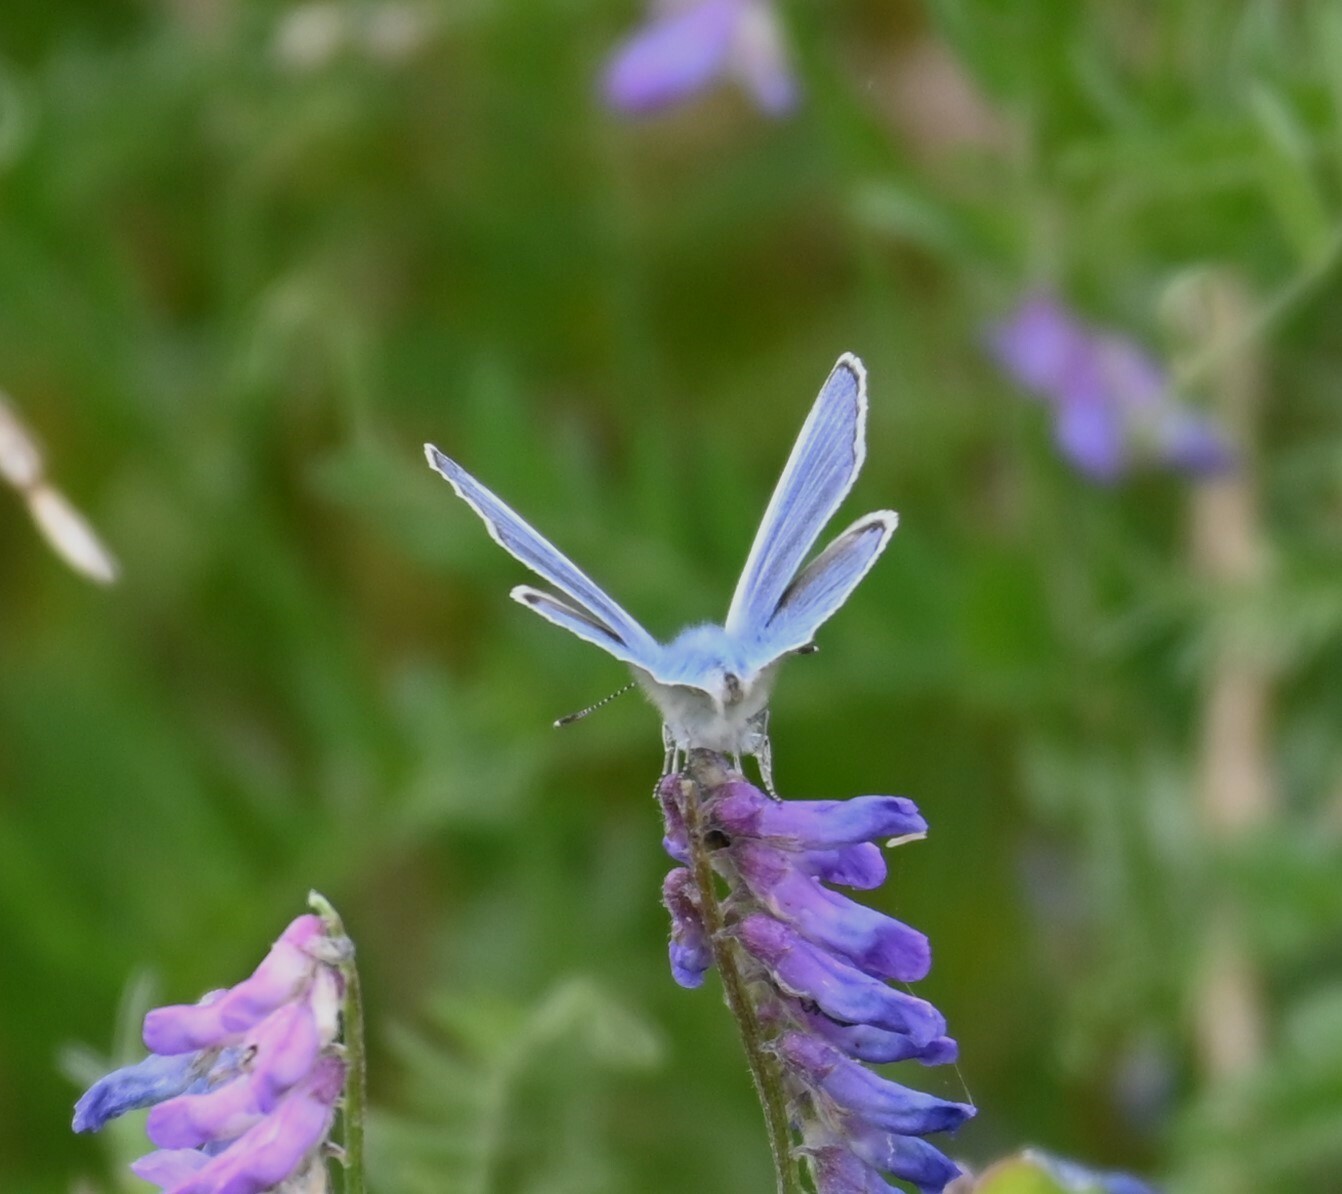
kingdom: Animalia
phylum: Arthropoda
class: Insecta
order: Lepidoptera
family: Lycaenidae
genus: Polyommatus
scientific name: Polyommatus icarus
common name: Common blue
